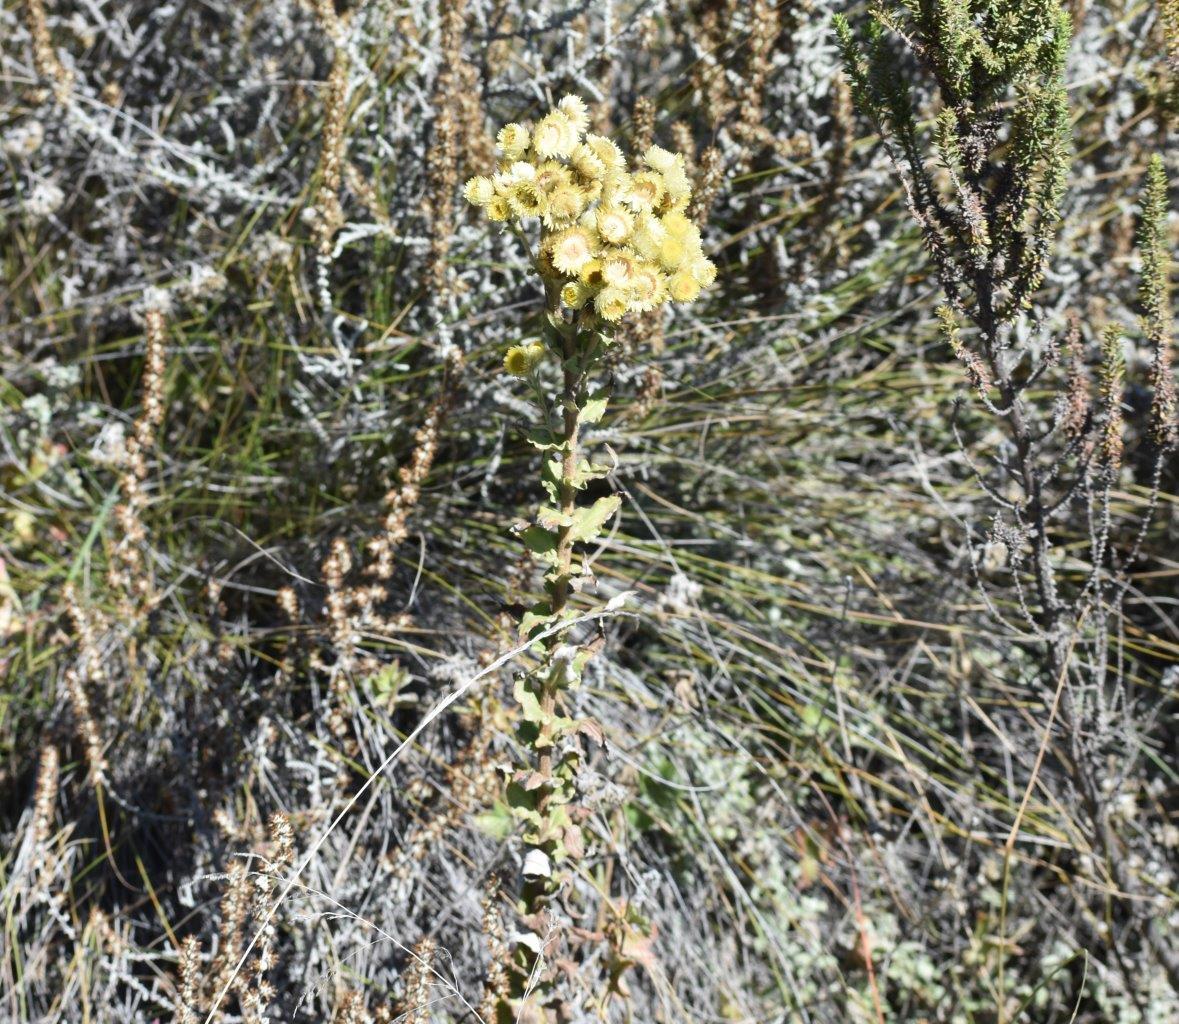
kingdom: Plantae
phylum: Tracheophyta
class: Magnoliopsida
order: Asterales
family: Asteraceae
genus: Helichrysum
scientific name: Helichrysum foetidum
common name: Stinking everlasting
